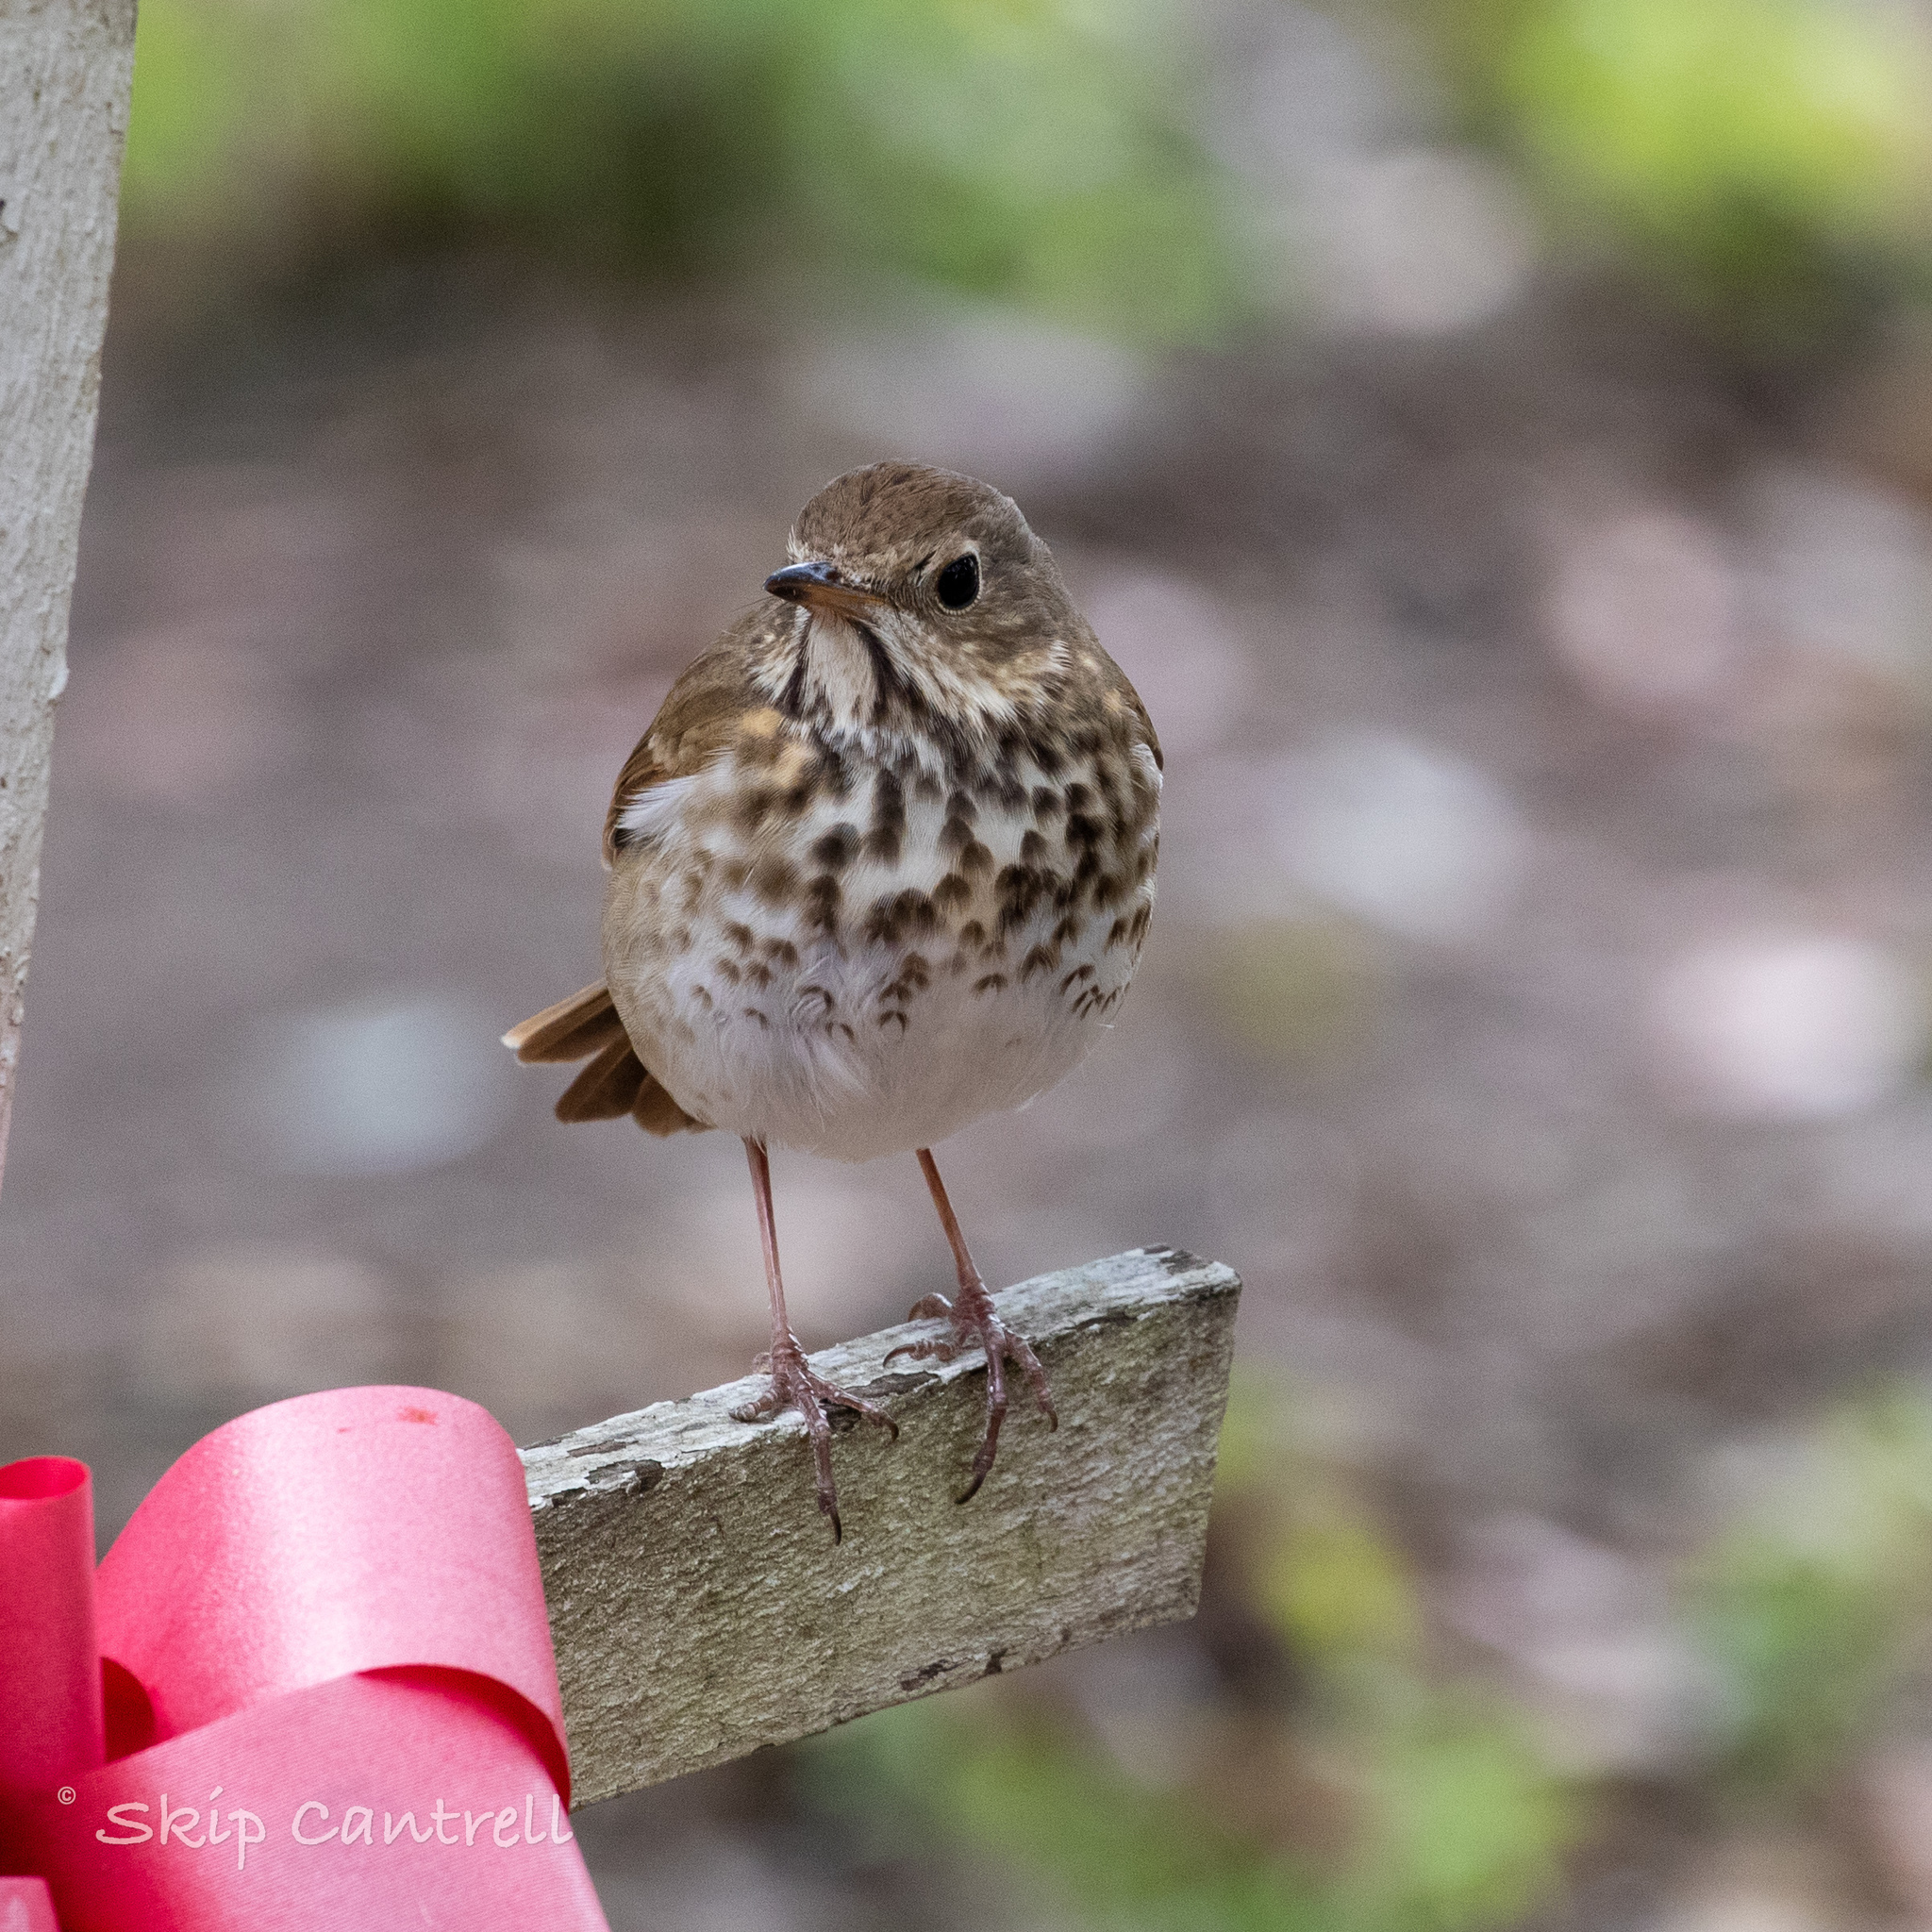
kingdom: Animalia
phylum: Chordata
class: Aves
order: Passeriformes
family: Turdidae
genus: Catharus
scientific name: Catharus guttatus
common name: Hermit thrush
